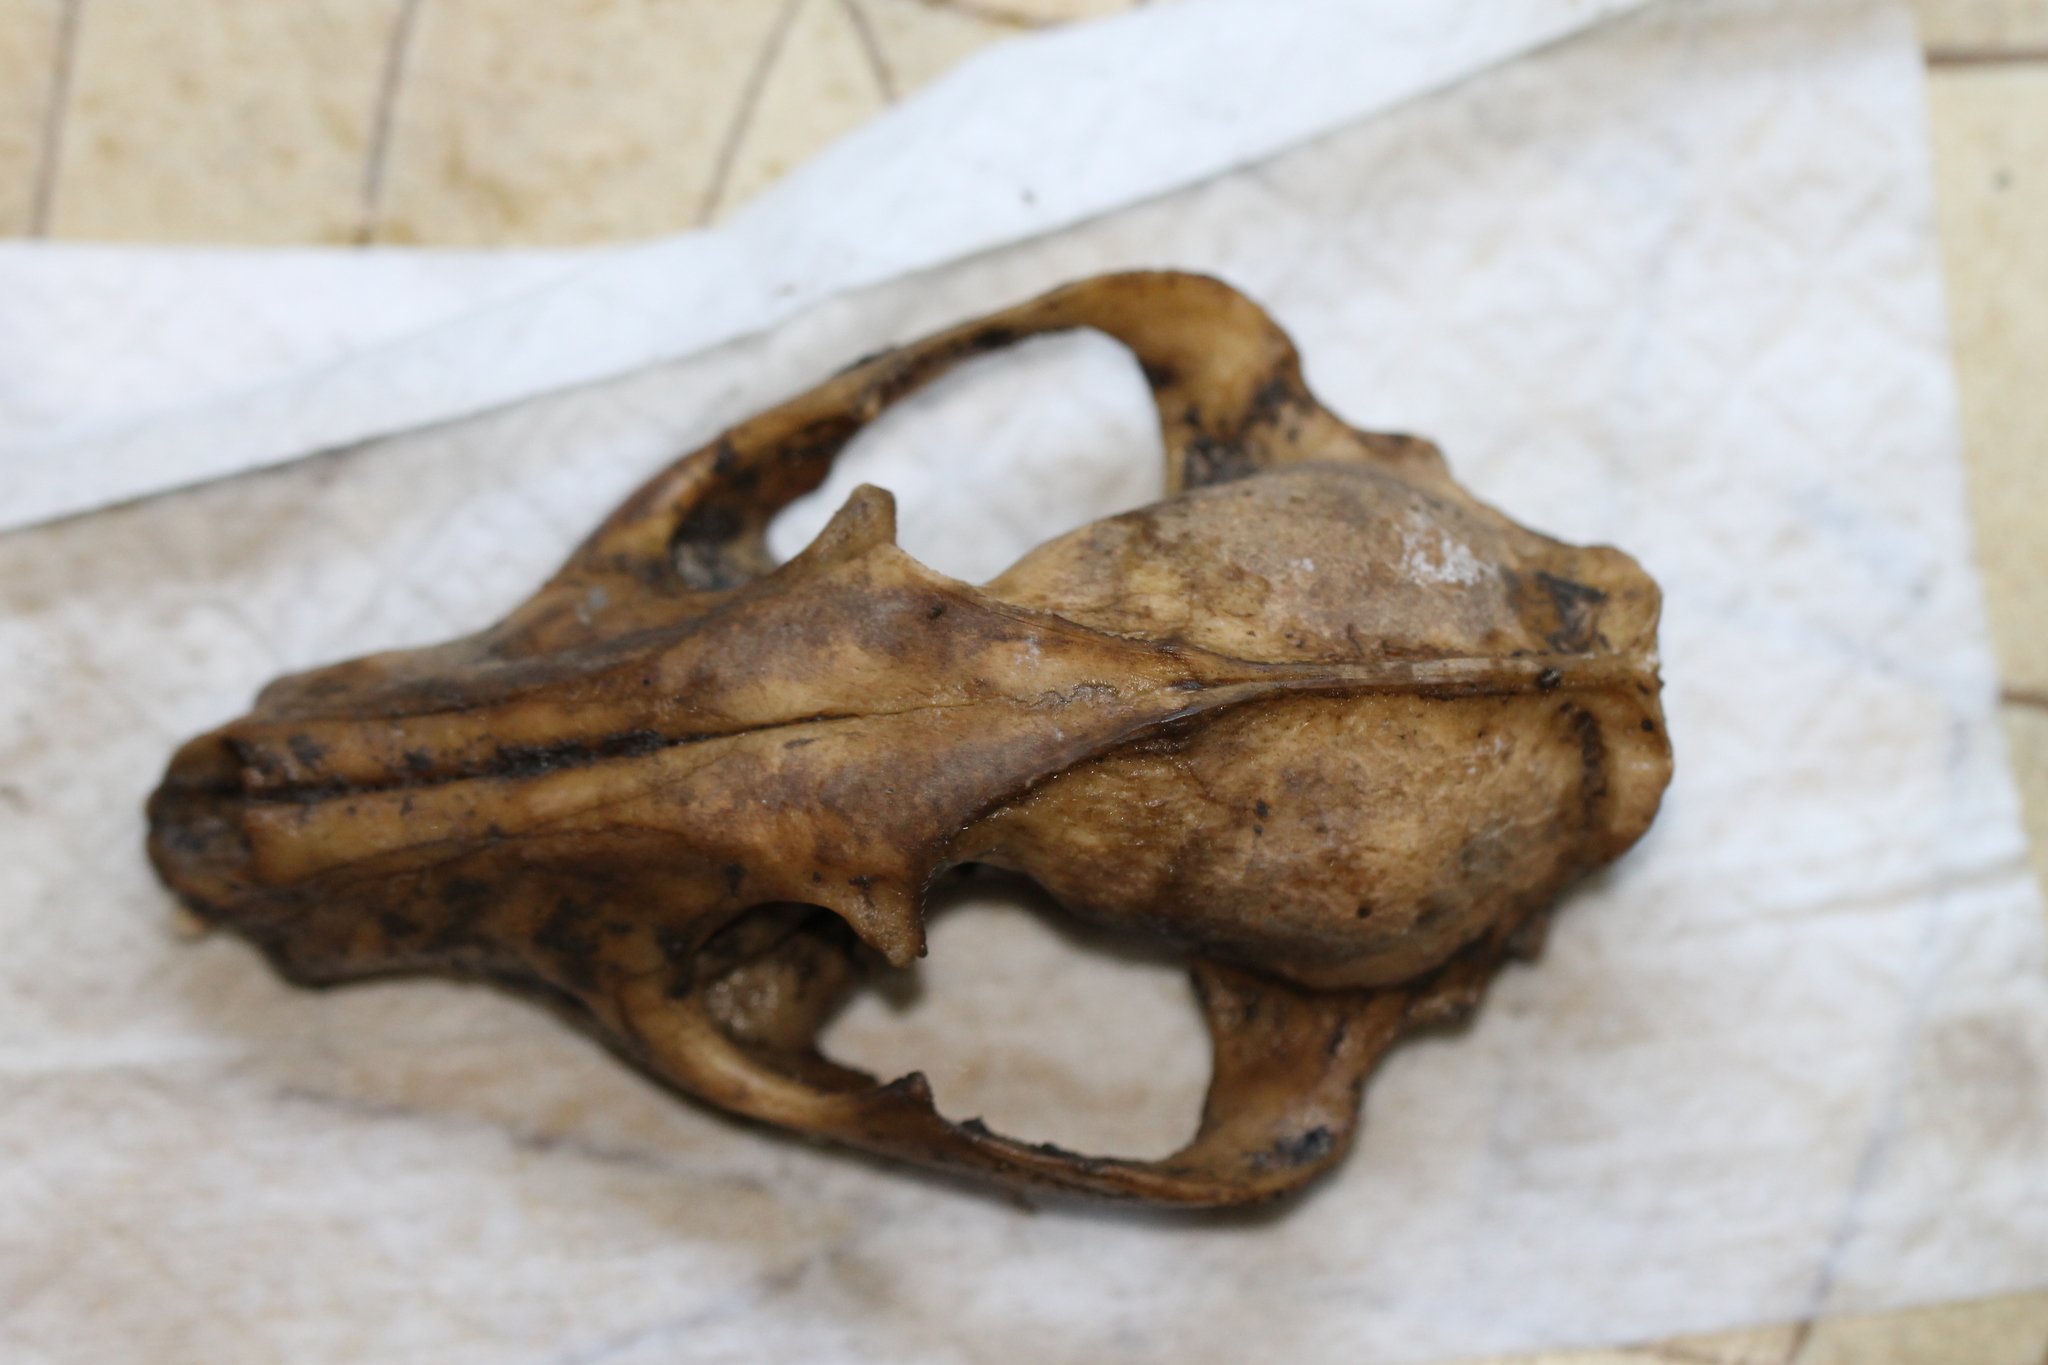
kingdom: Animalia
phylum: Chordata
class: Mammalia
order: Carnivora
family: Canidae
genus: Nyctereutes
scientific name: Nyctereutes procyonoides
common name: Raccoon dog
